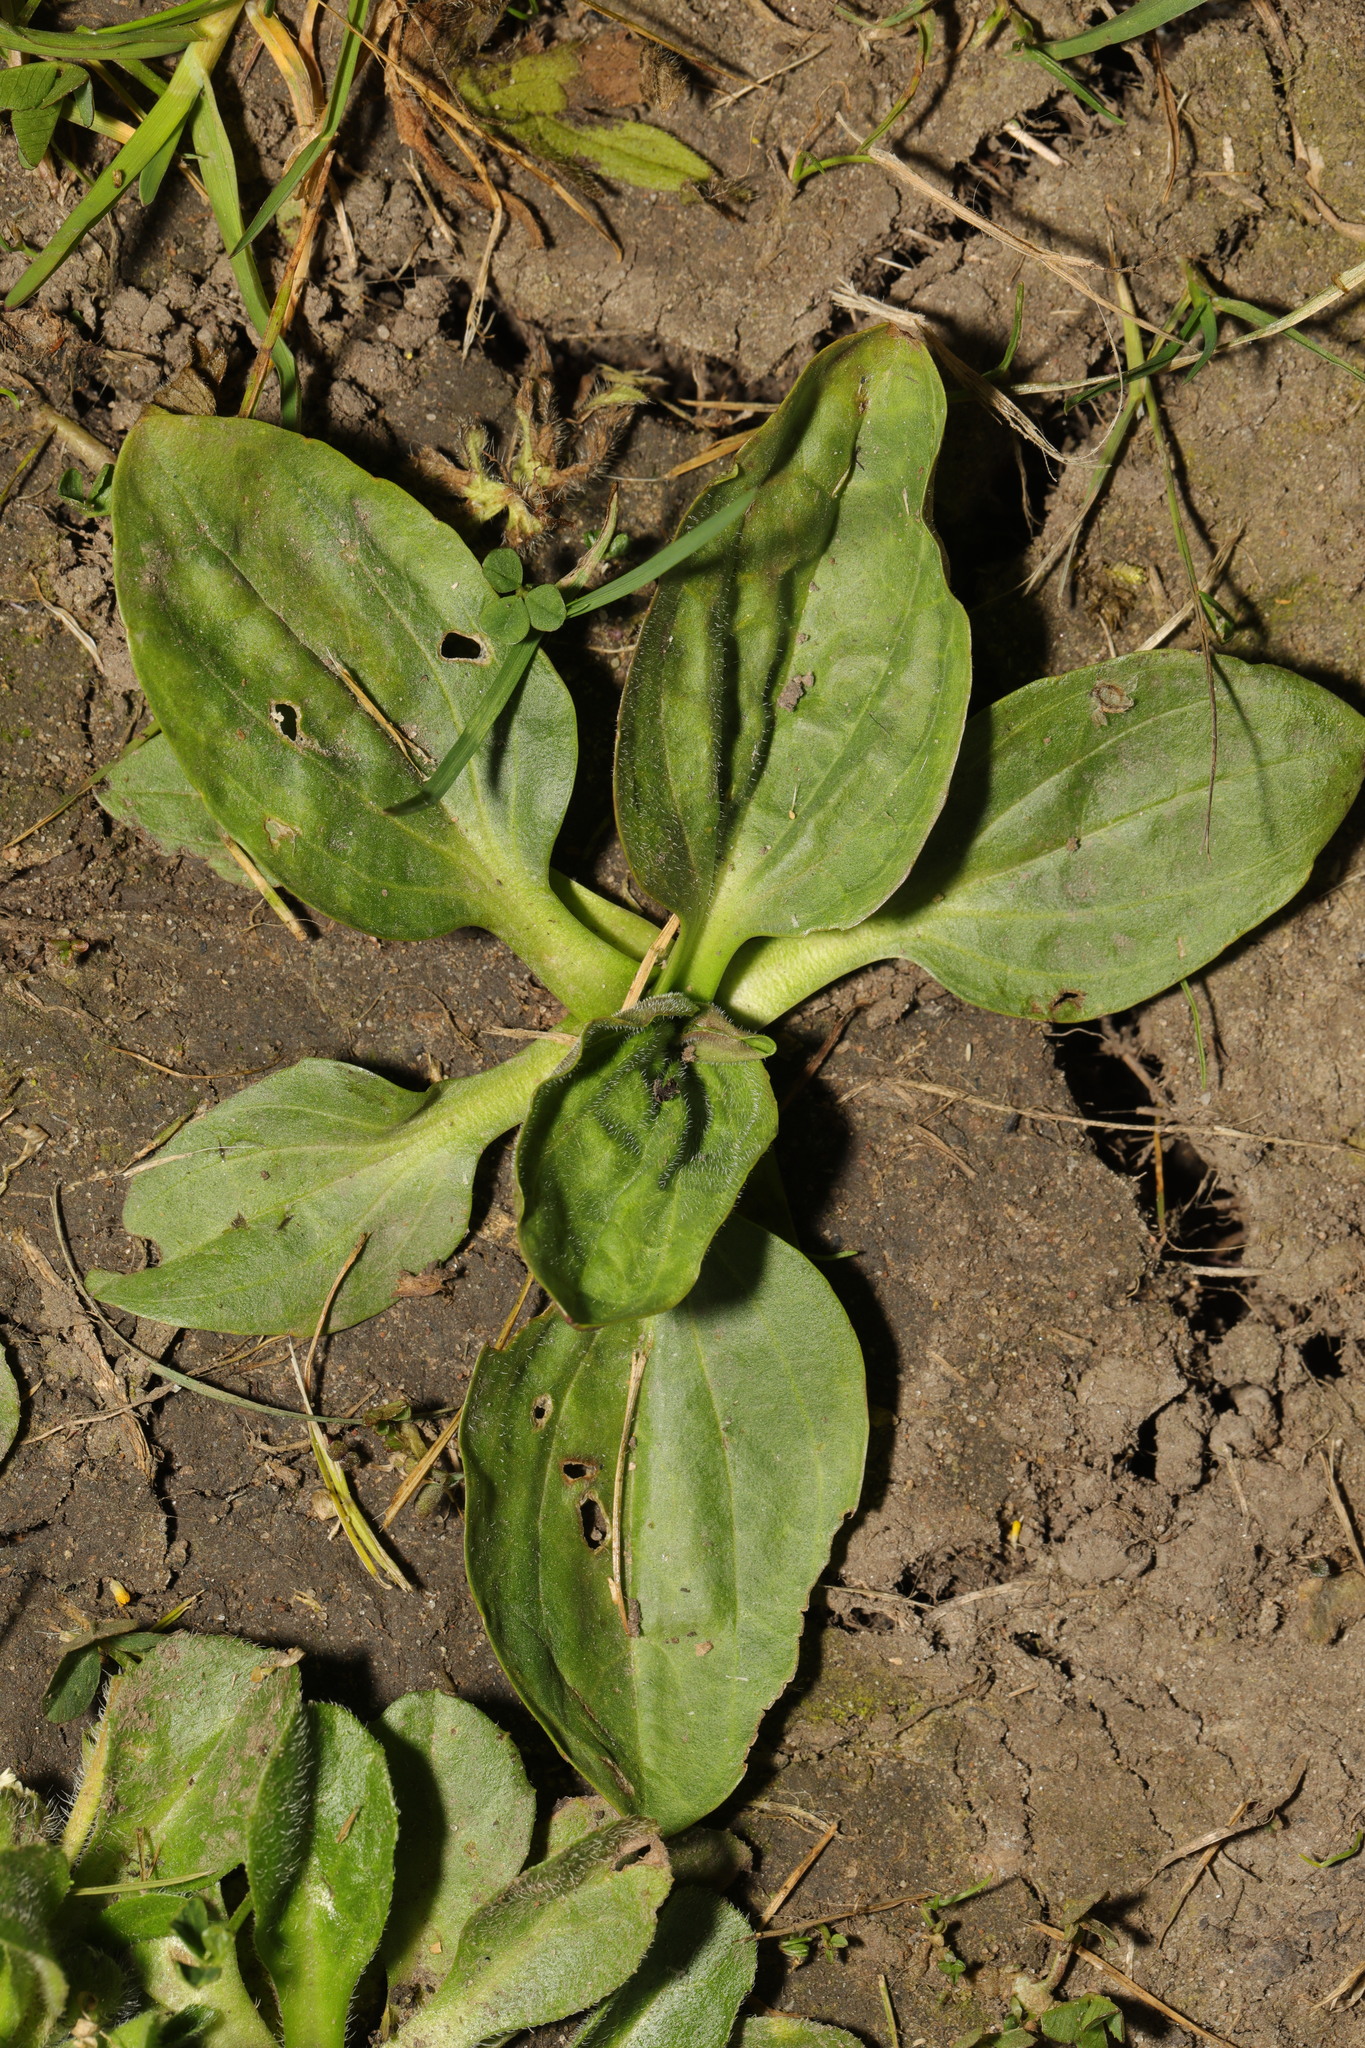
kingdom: Plantae
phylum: Tracheophyta
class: Magnoliopsida
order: Lamiales
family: Plantaginaceae
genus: Plantago
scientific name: Plantago major
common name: Common plantain
